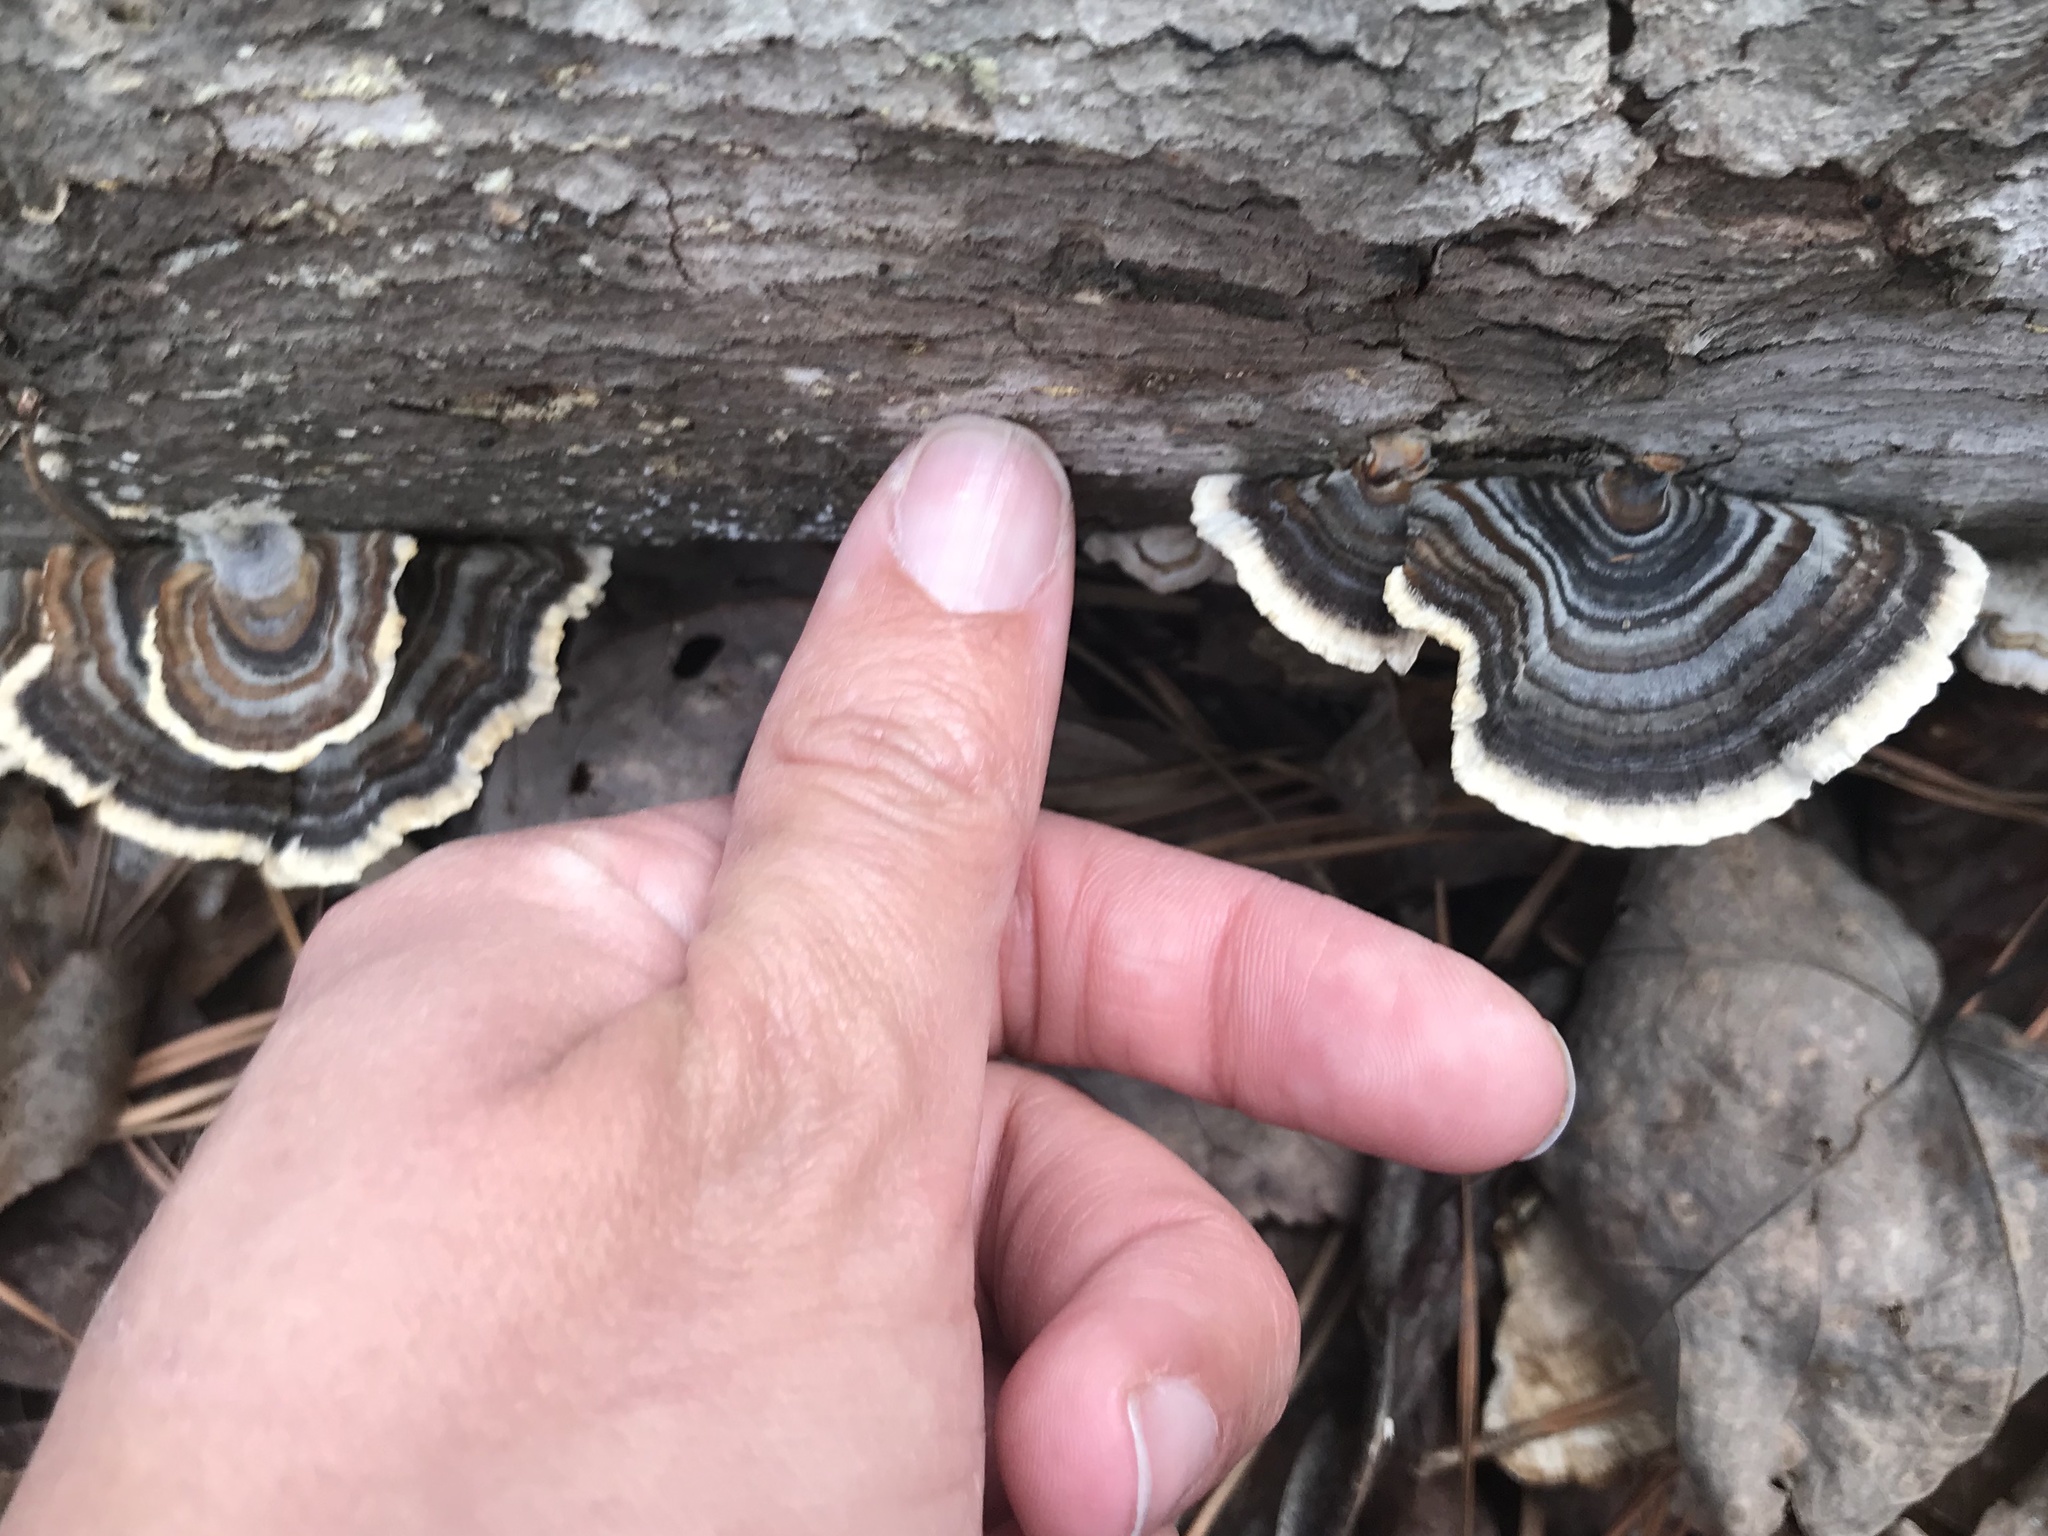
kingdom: Fungi
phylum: Basidiomycota
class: Agaricomycetes
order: Polyporales
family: Polyporaceae
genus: Trametes
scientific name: Trametes versicolor
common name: Turkeytail
